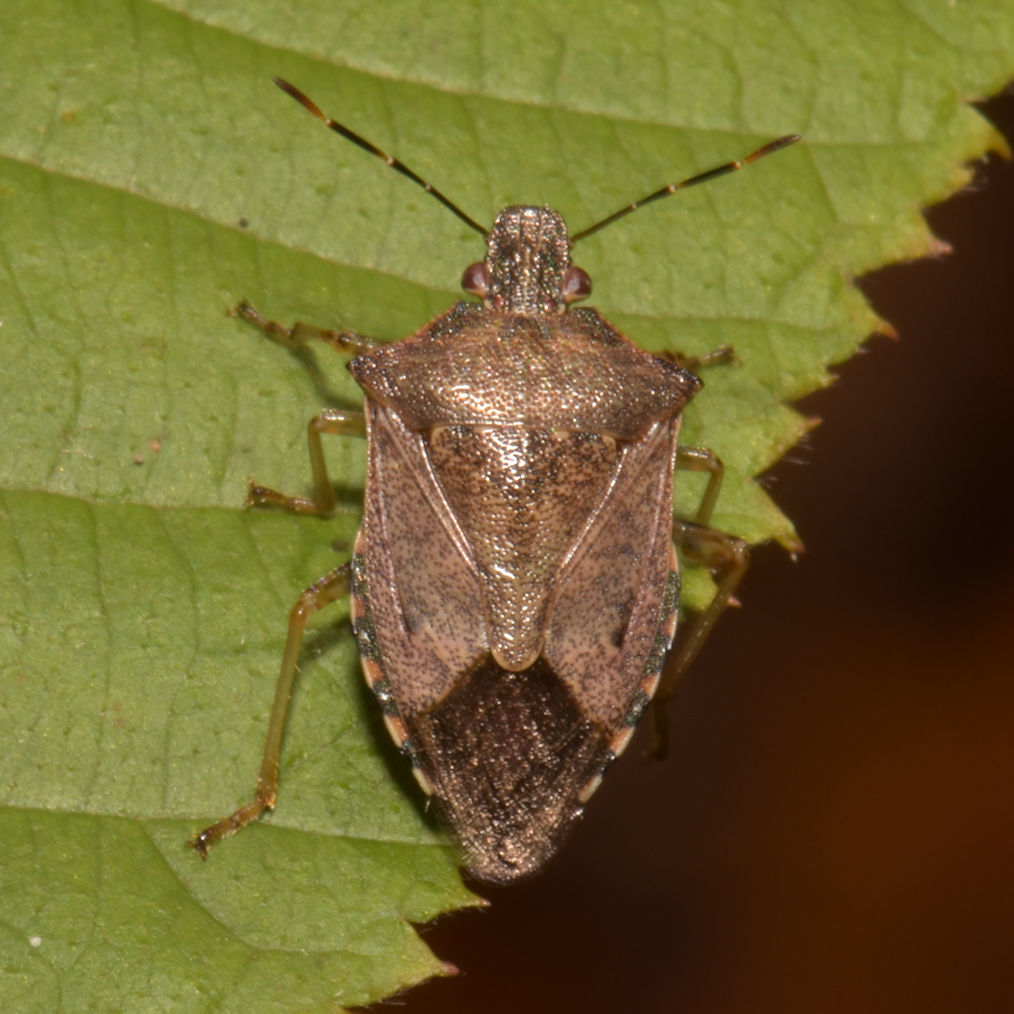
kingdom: Animalia
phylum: Arthropoda
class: Insecta
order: Hemiptera
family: Pentatomidae
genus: Podisus
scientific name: Podisus serieventris
